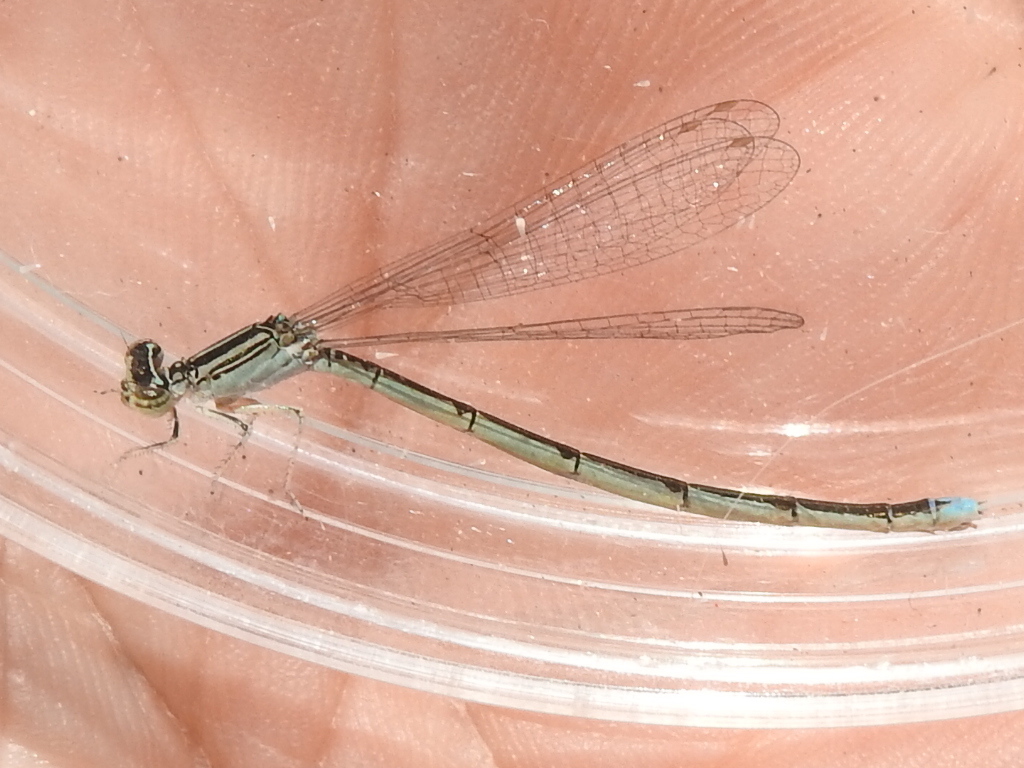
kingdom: Animalia
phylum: Arthropoda
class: Insecta
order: Odonata
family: Coenagrionidae
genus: Enallagma
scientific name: Enallagma basidens
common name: Double-striped bluet
